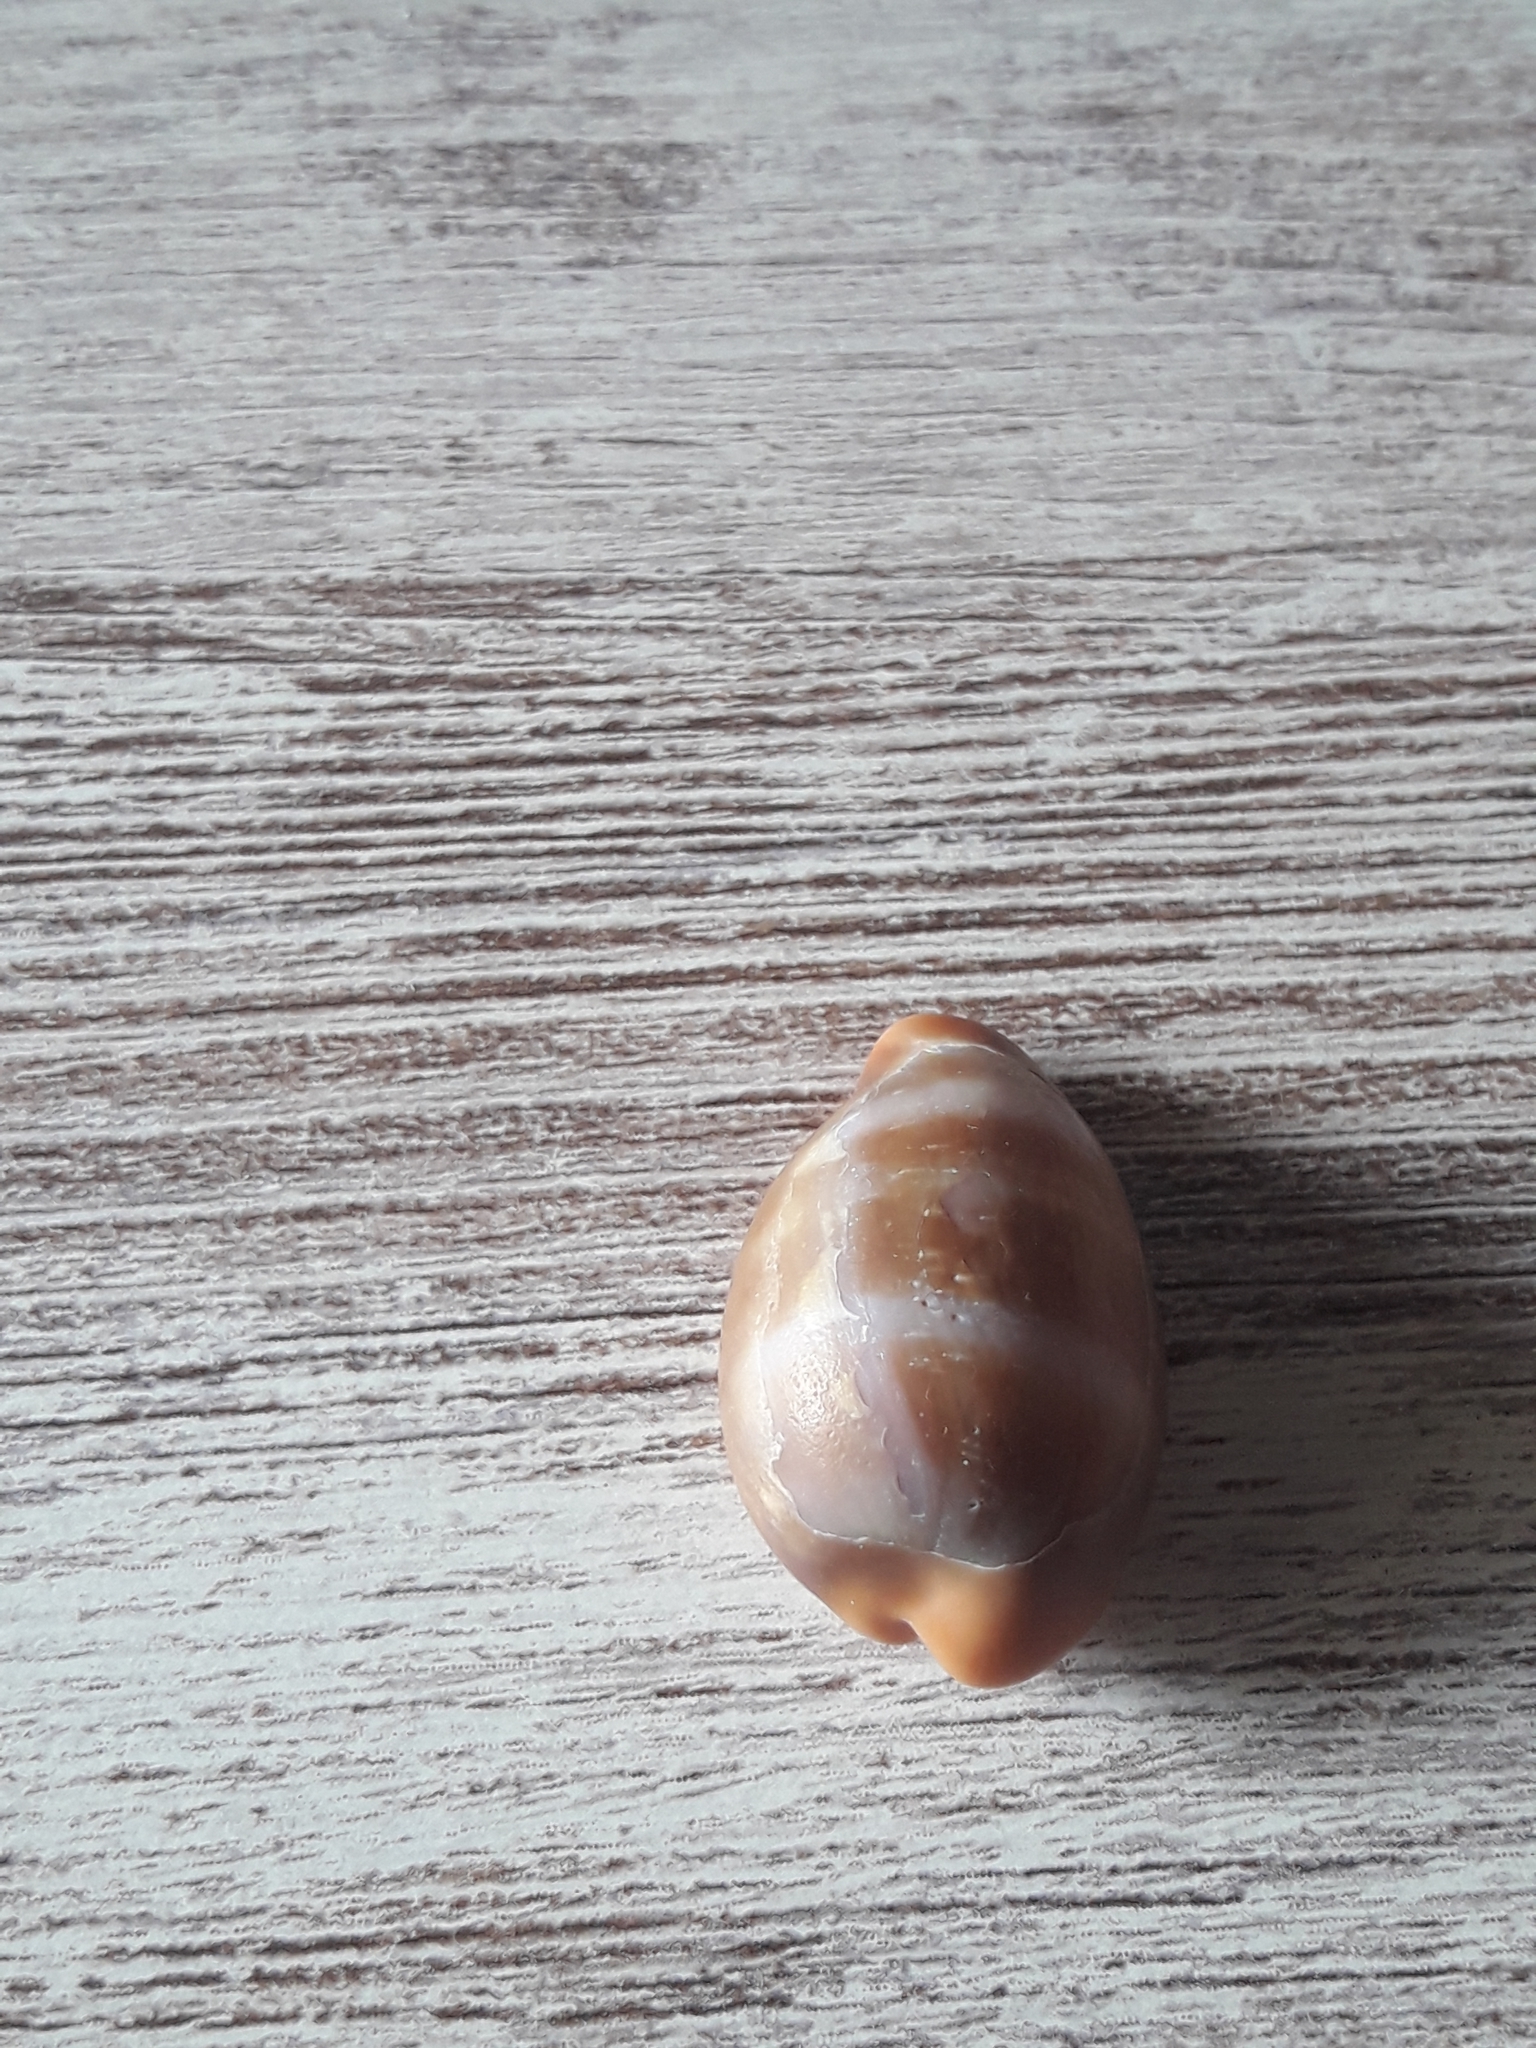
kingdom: Animalia
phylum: Mollusca
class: Gastropoda
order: Littorinimorpha
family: Cypraeidae
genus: Zonaria
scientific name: Zonaria pyrum
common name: Pear cowrie
